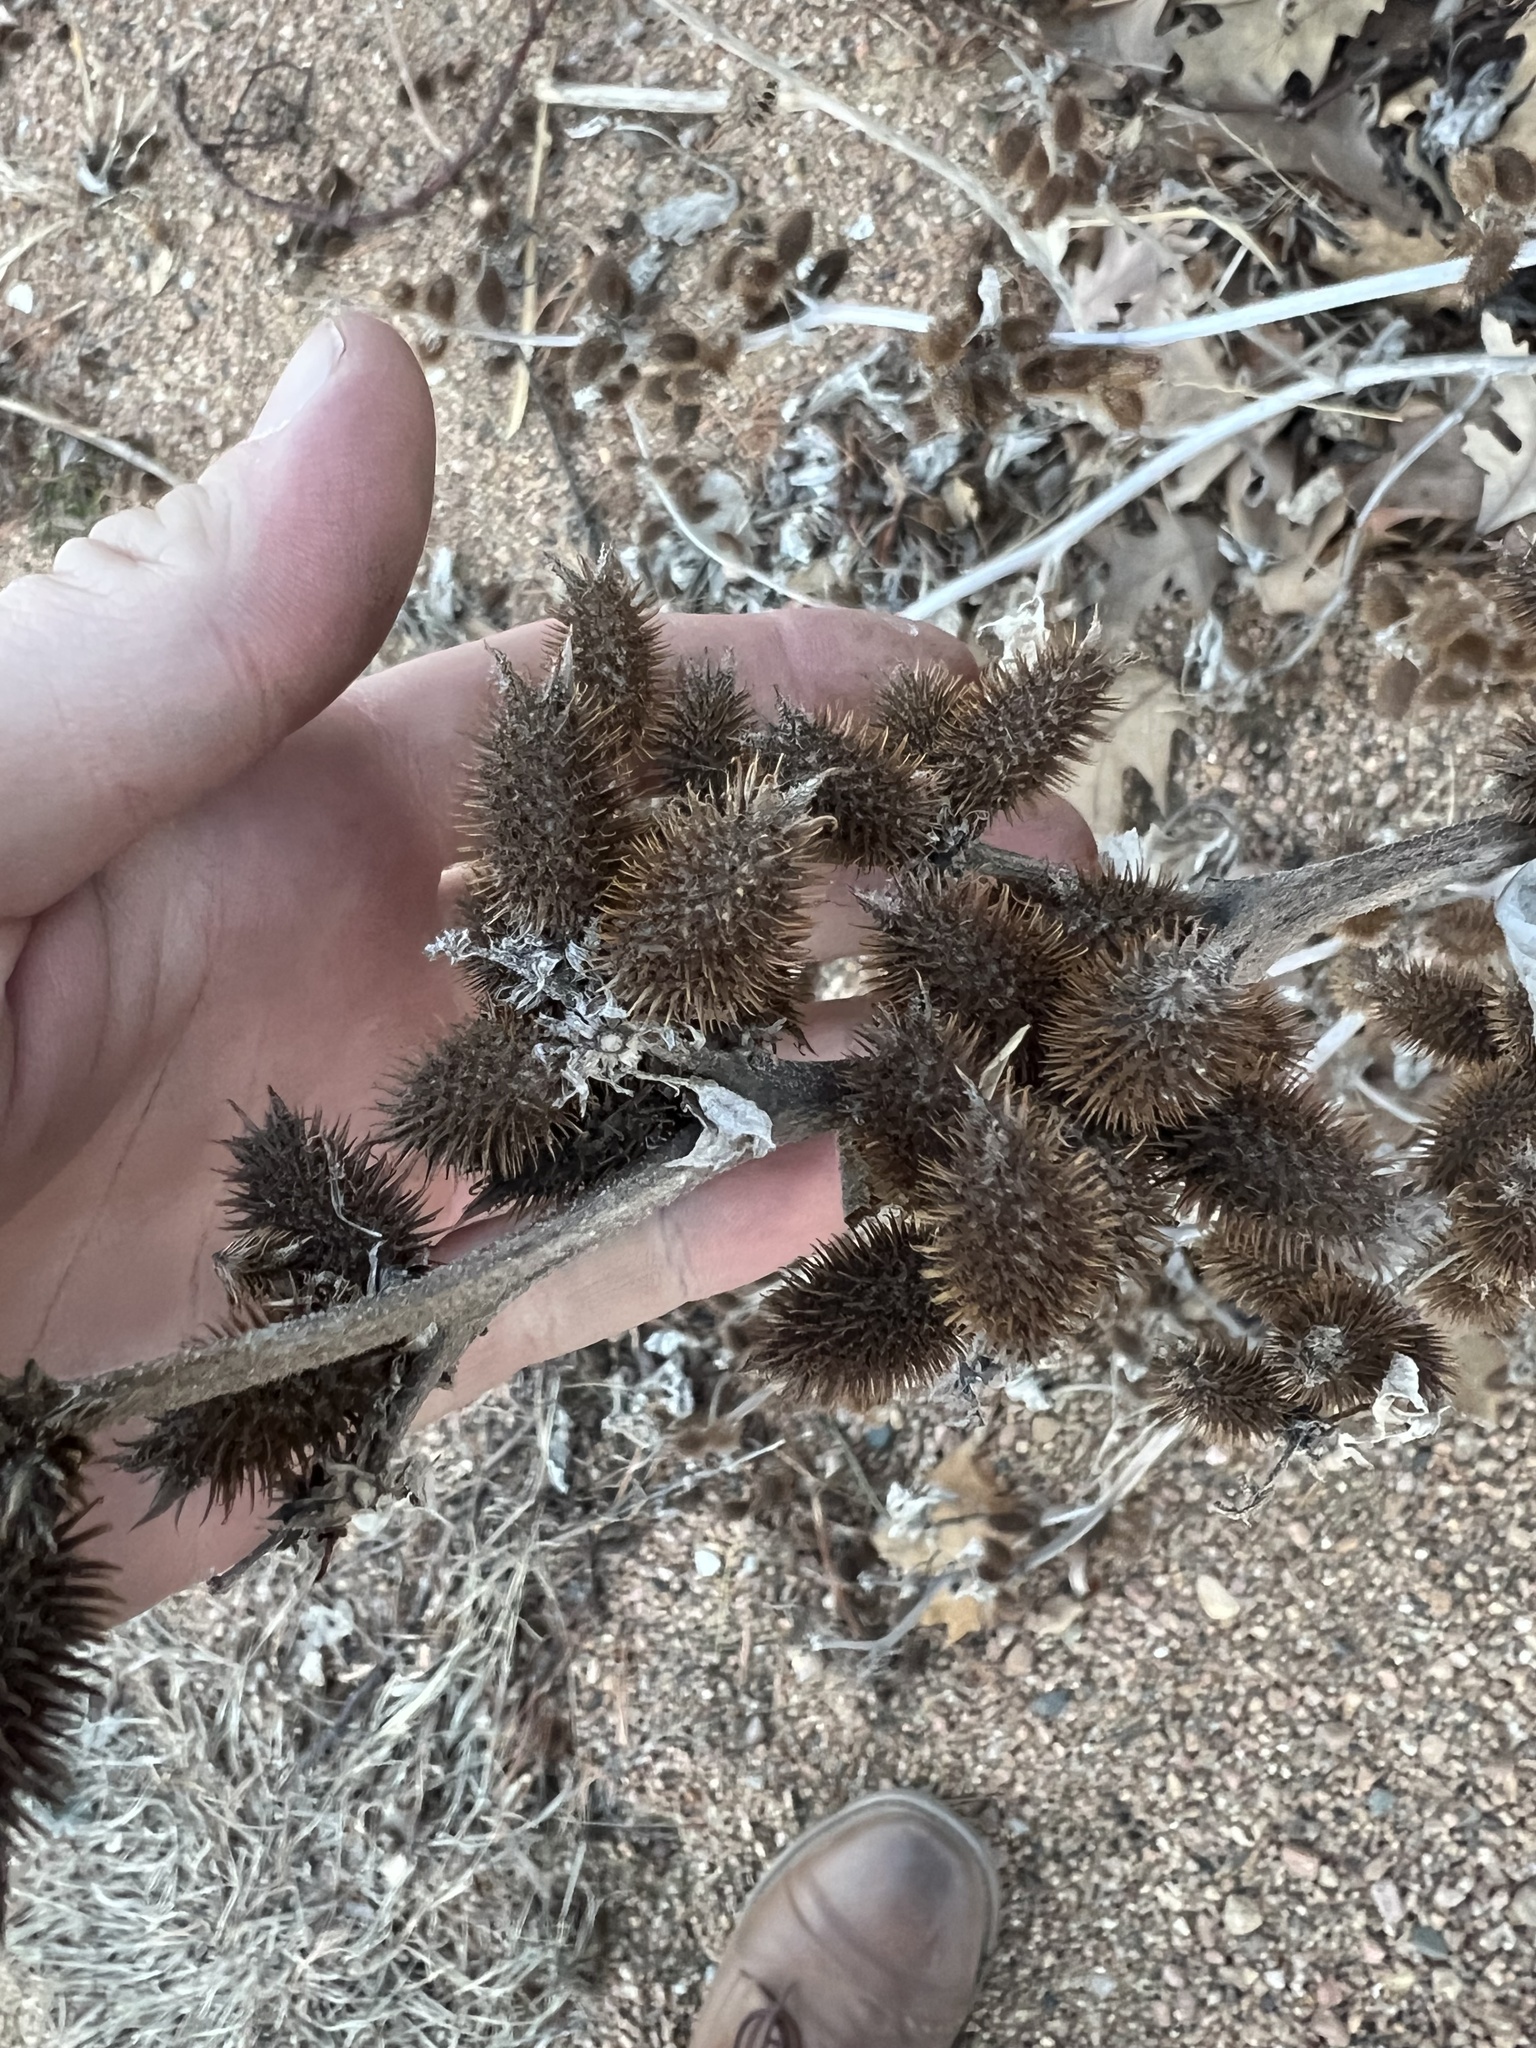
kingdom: Plantae
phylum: Tracheophyta
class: Magnoliopsida
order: Asterales
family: Asteraceae
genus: Xanthium
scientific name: Xanthium strumarium
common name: Rough cocklebur
